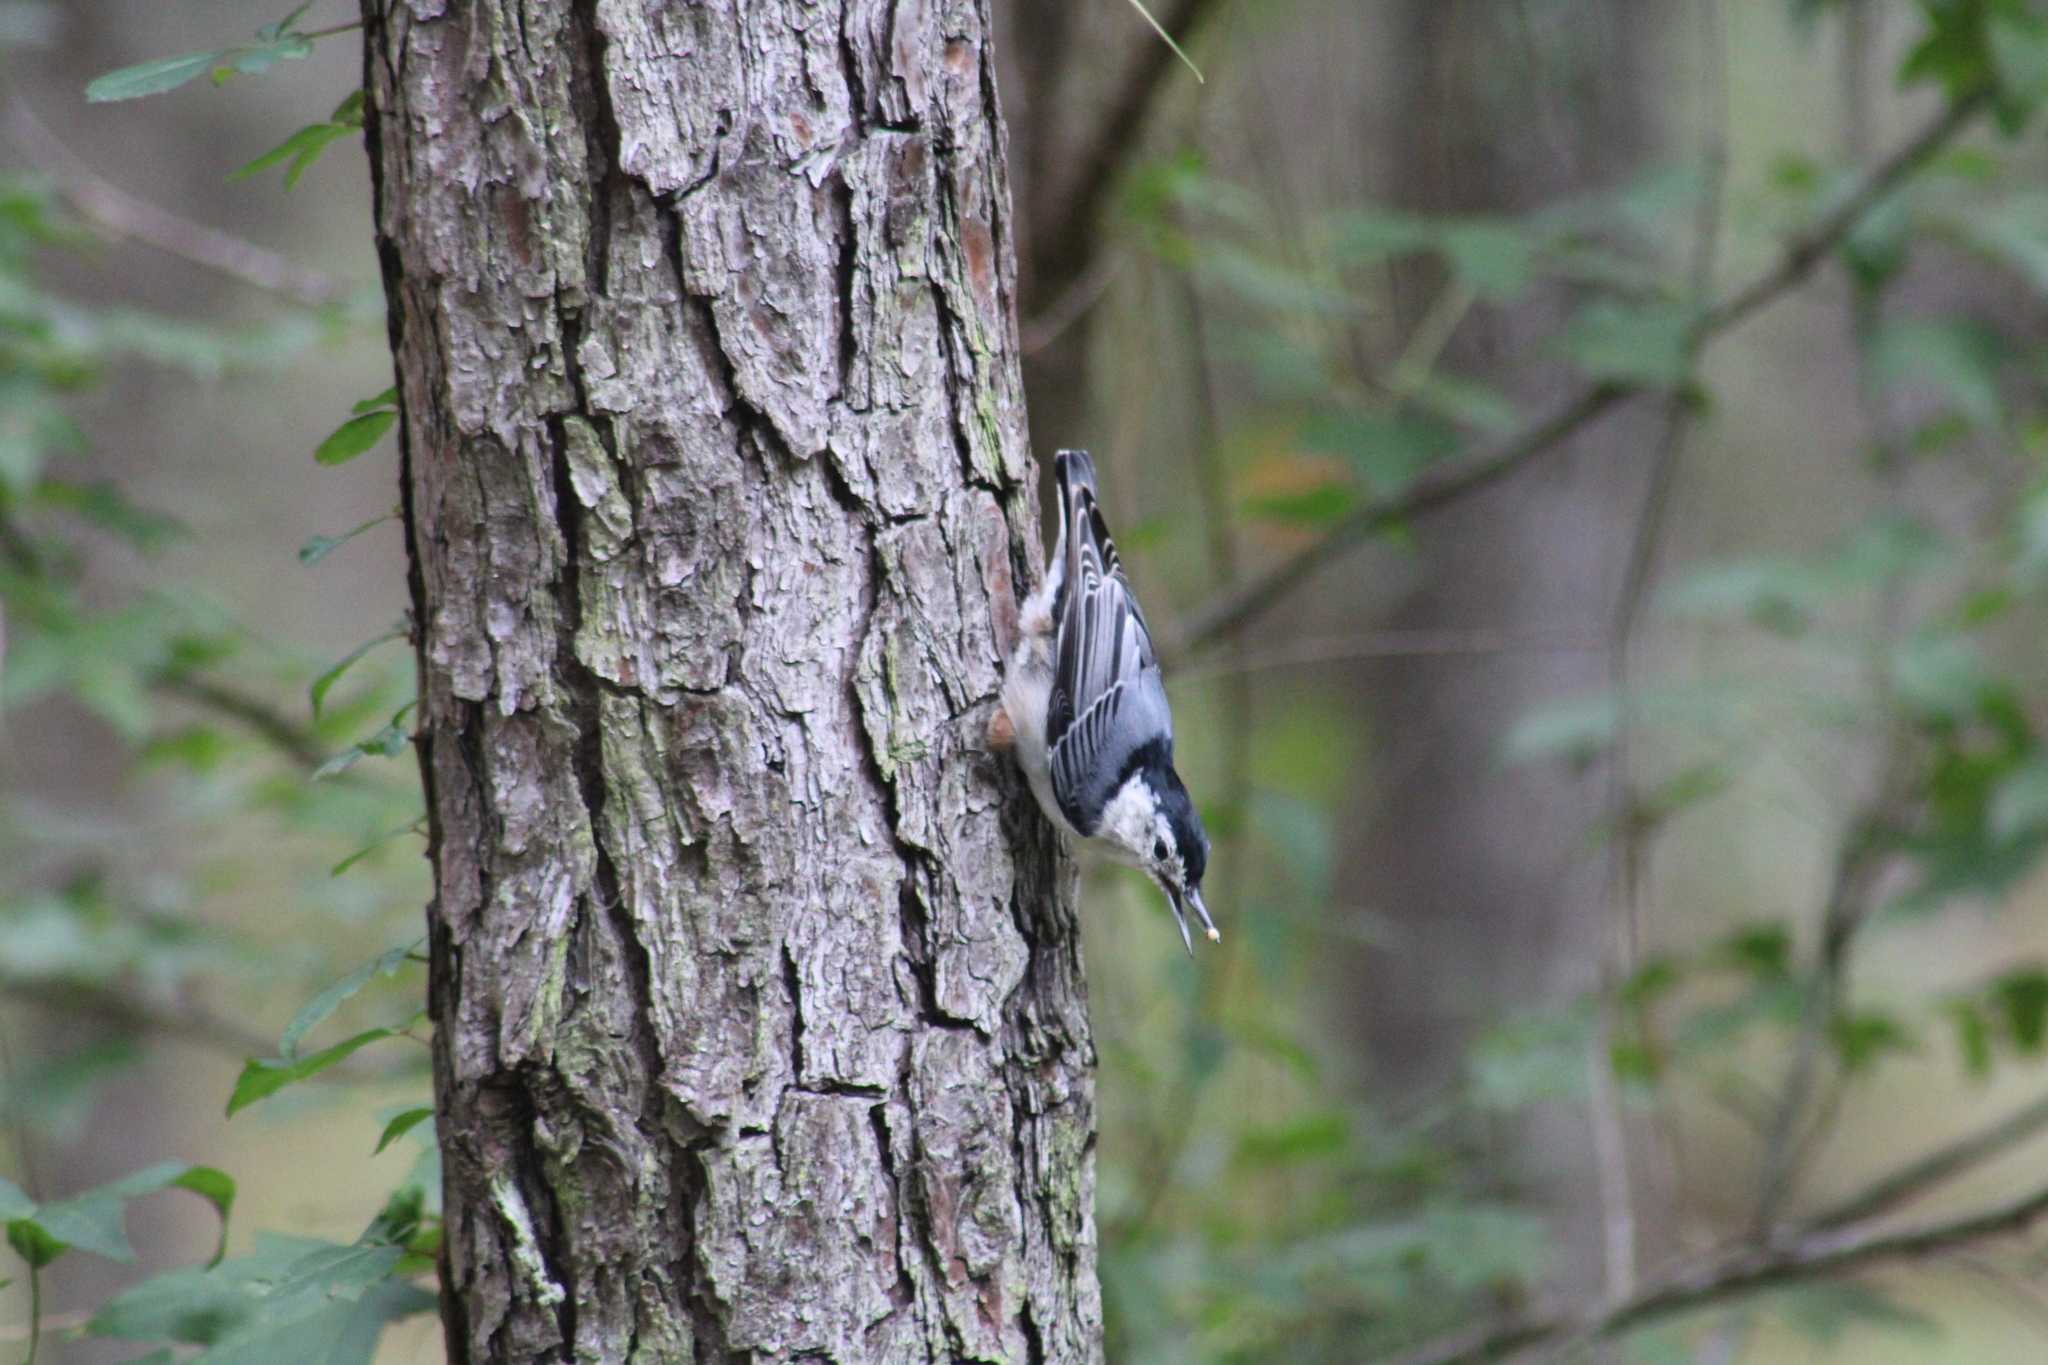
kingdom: Animalia
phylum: Chordata
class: Aves
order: Passeriformes
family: Sittidae
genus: Sitta
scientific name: Sitta carolinensis
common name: White-breasted nuthatch
